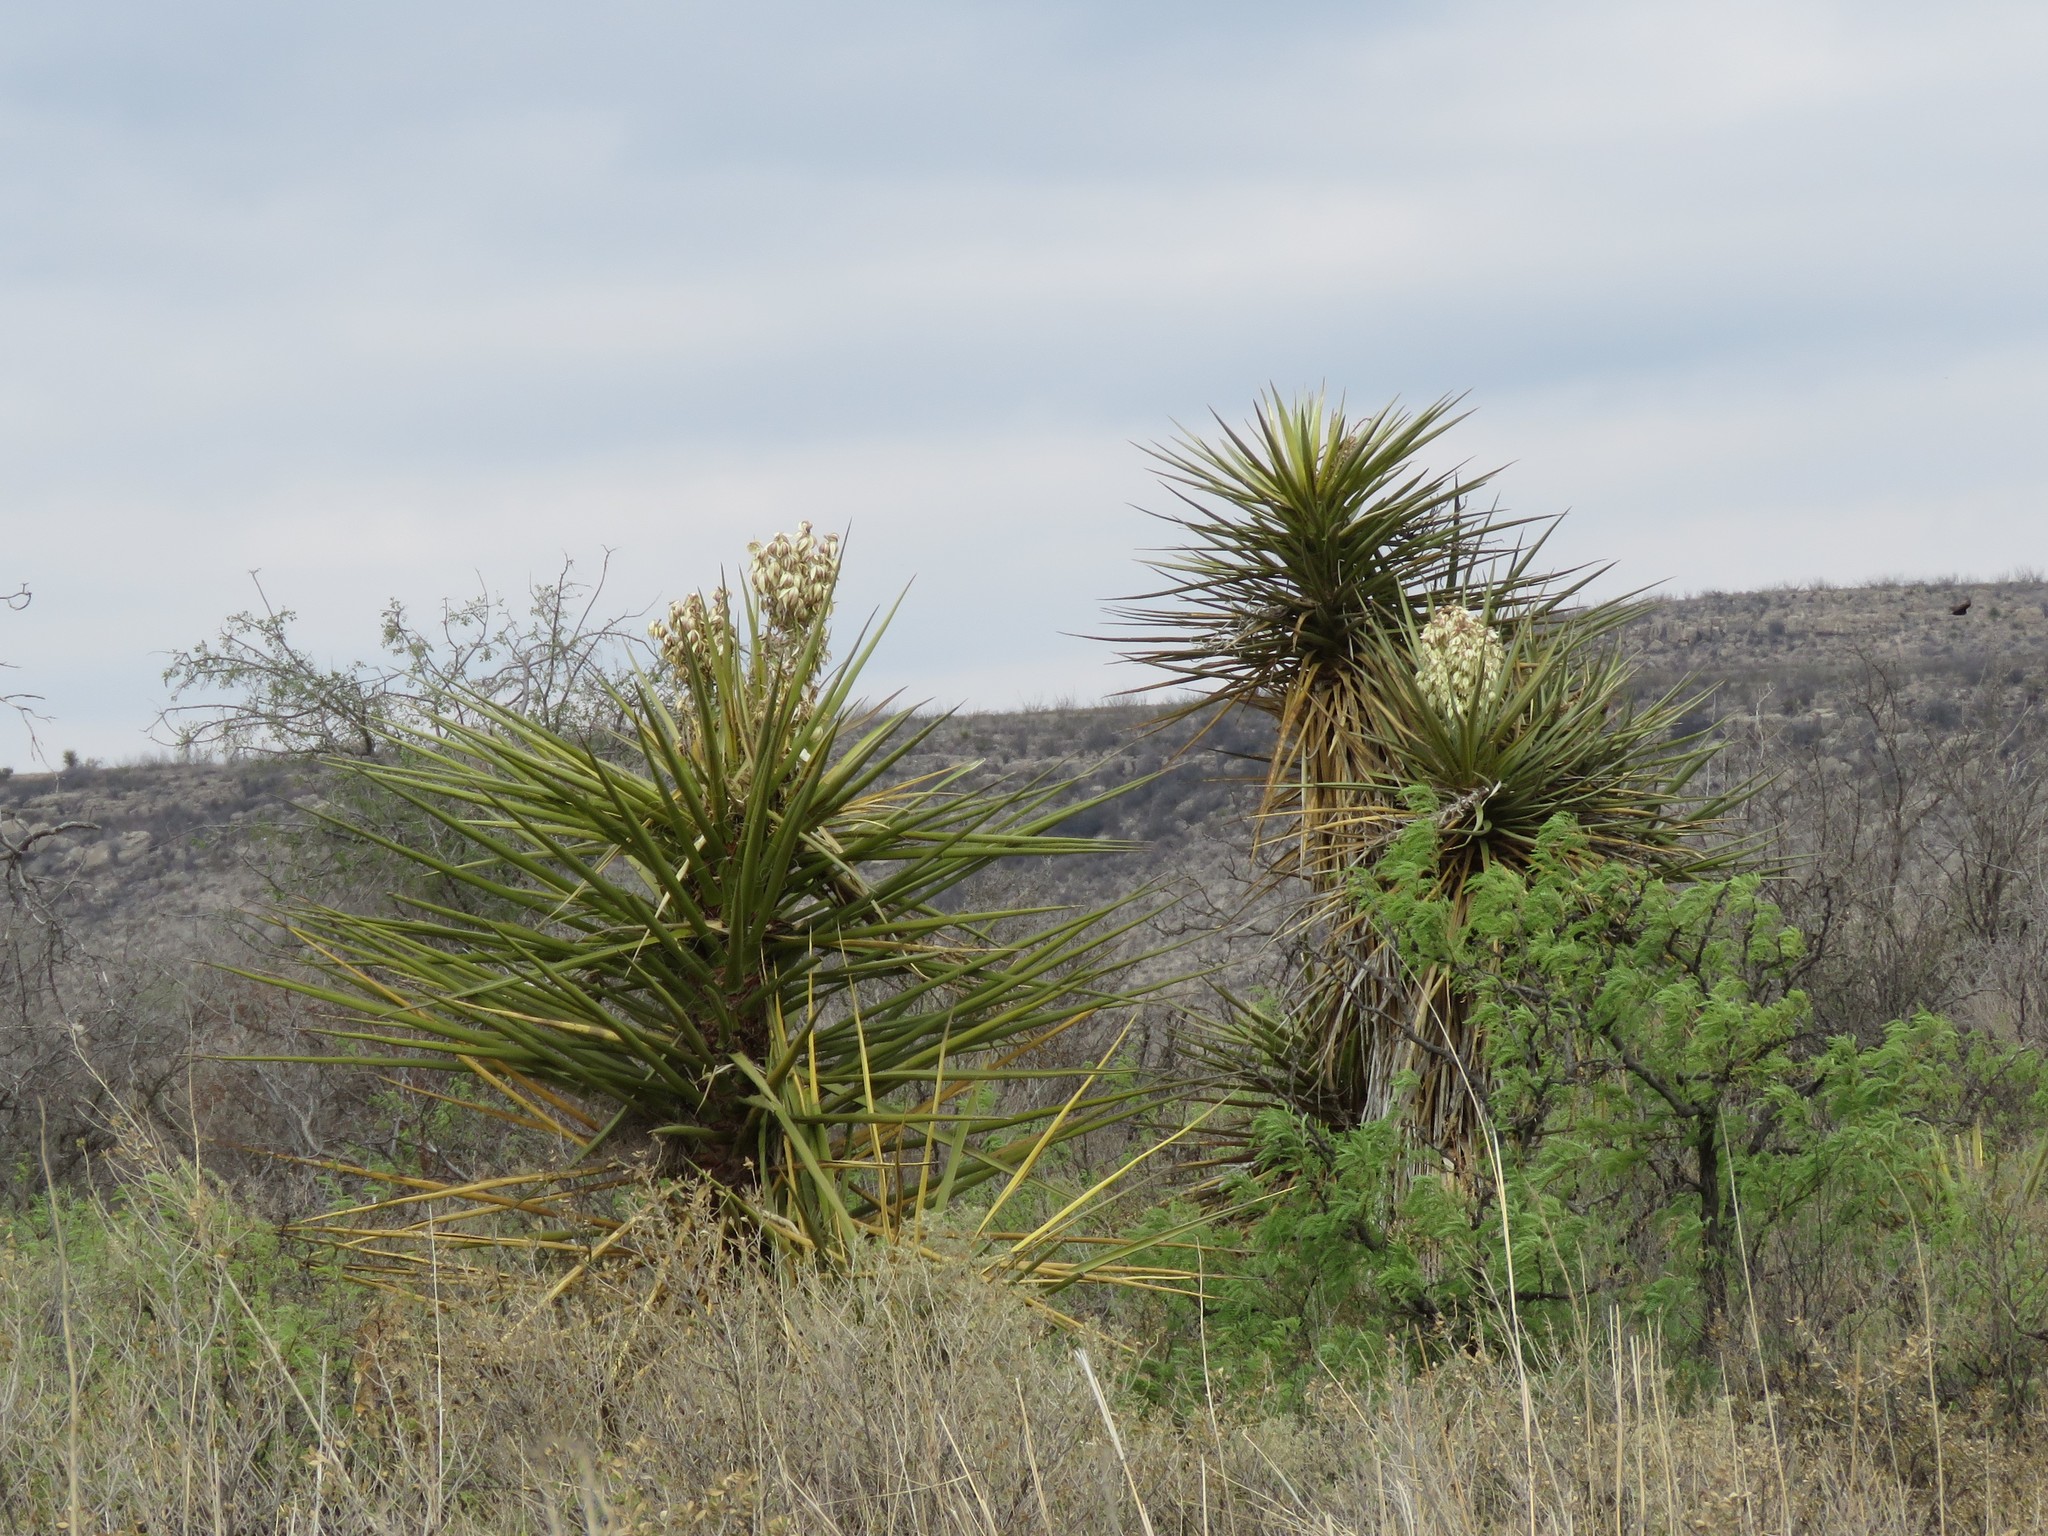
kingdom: Plantae
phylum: Tracheophyta
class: Liliopsida
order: Asparagales
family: Asparagaceae
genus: Yucca
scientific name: Yucca treculiana
